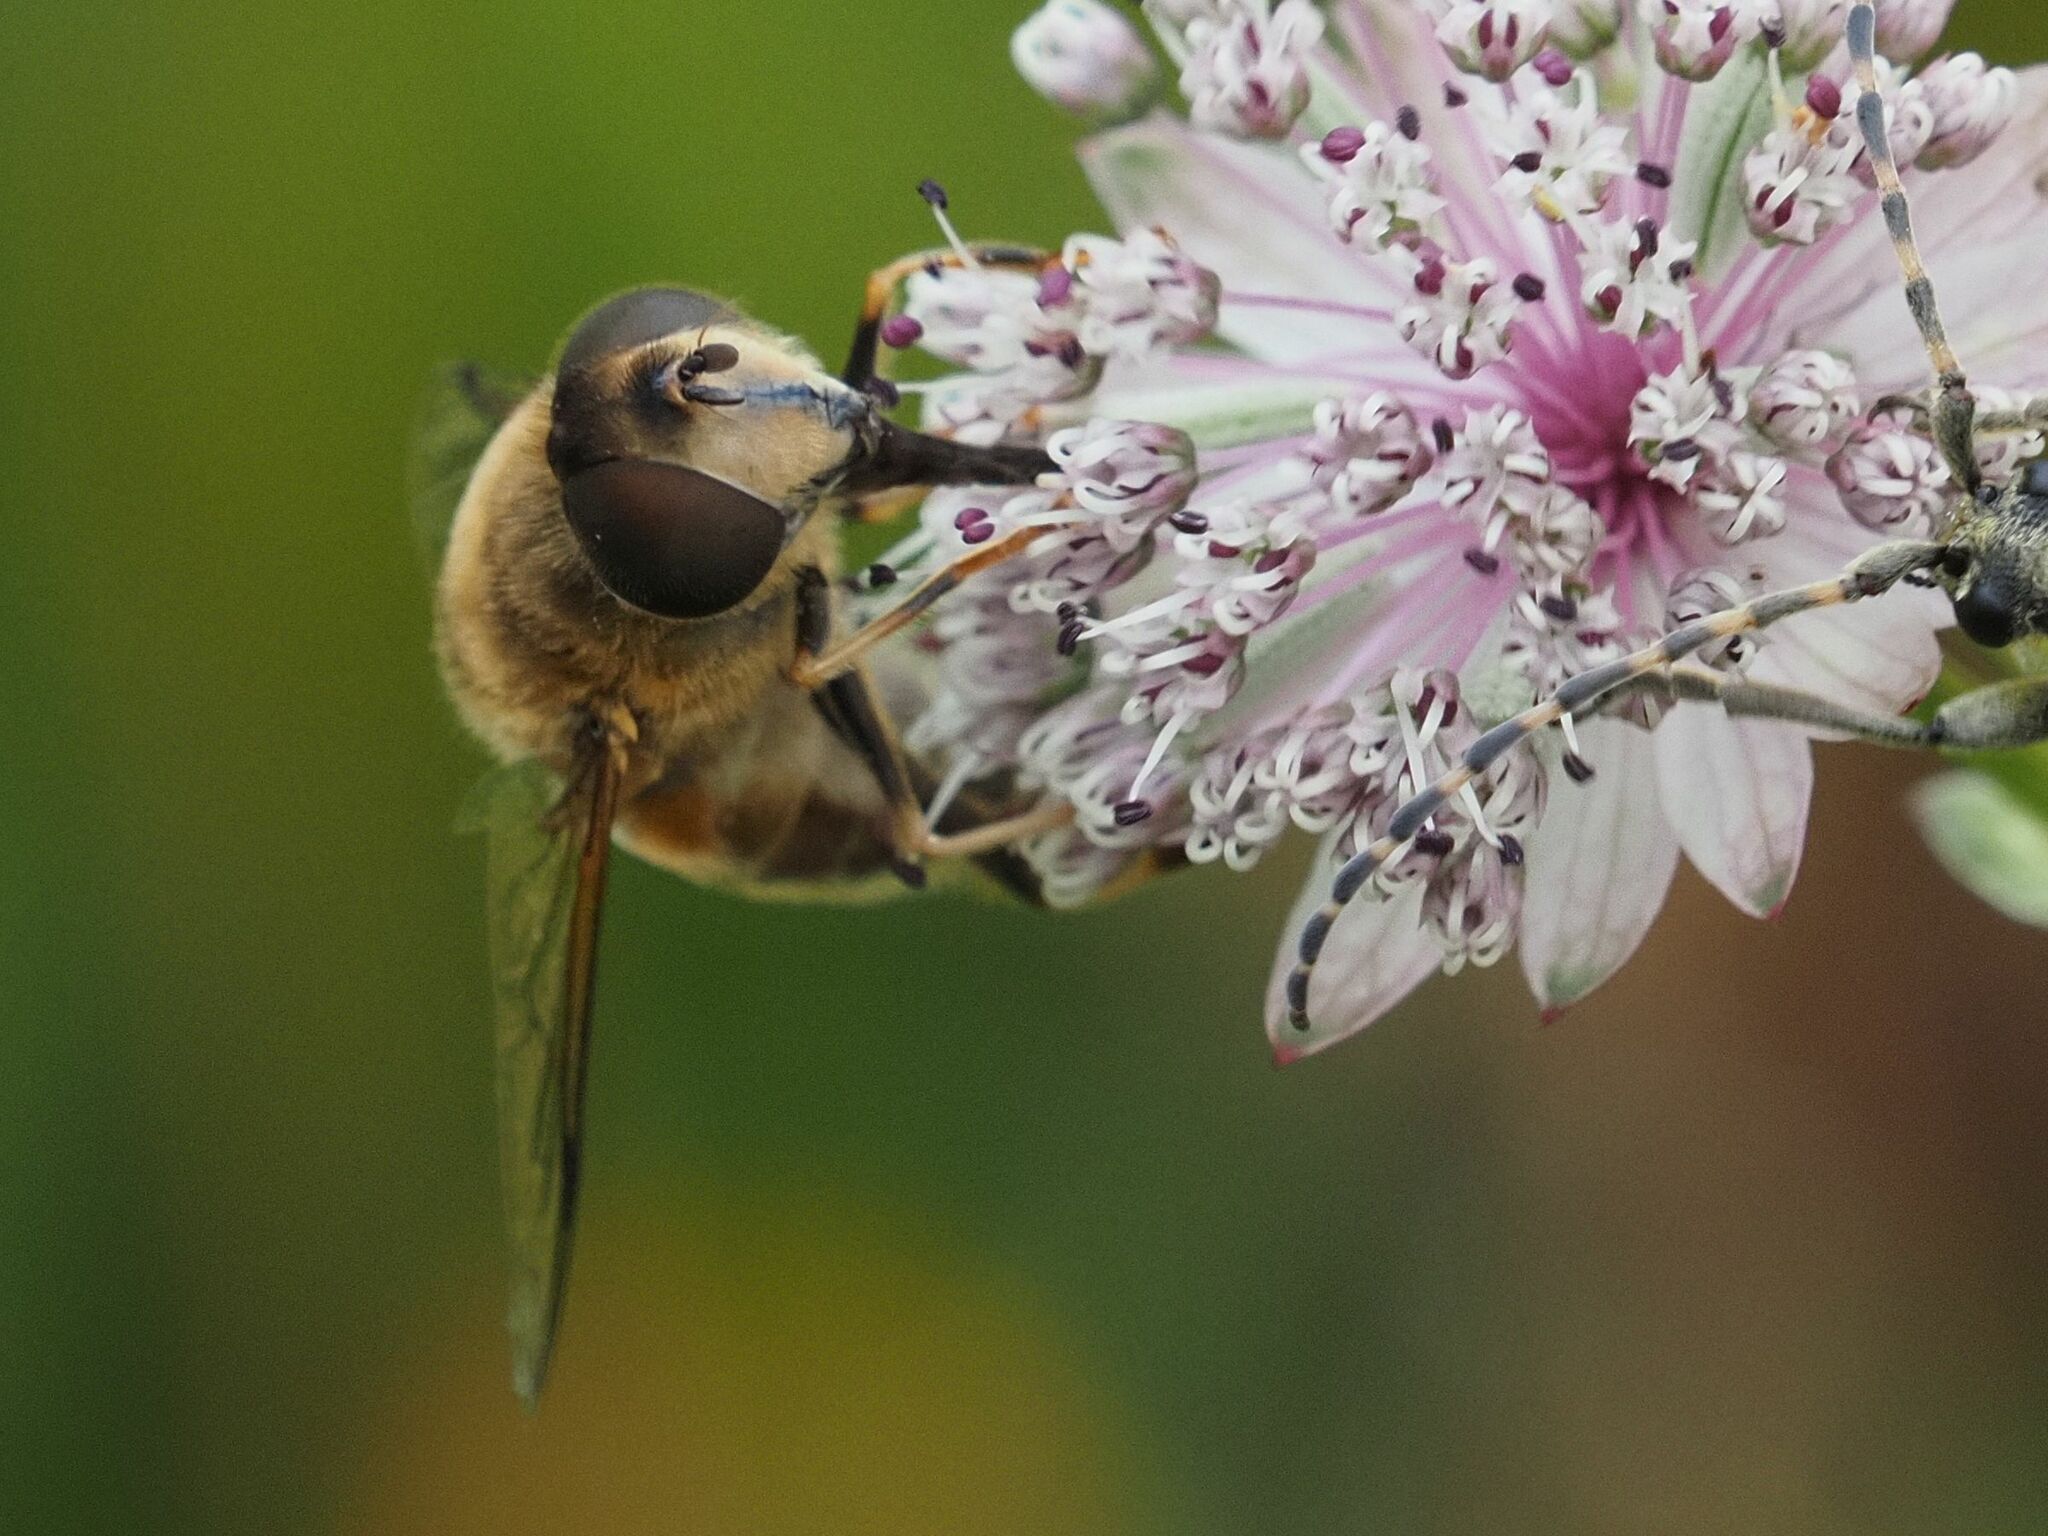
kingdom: Animalia
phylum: Arthropoda
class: Insecta
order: Diptera
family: Syrphidae
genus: Eristalis
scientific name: Eristalis pertinax
